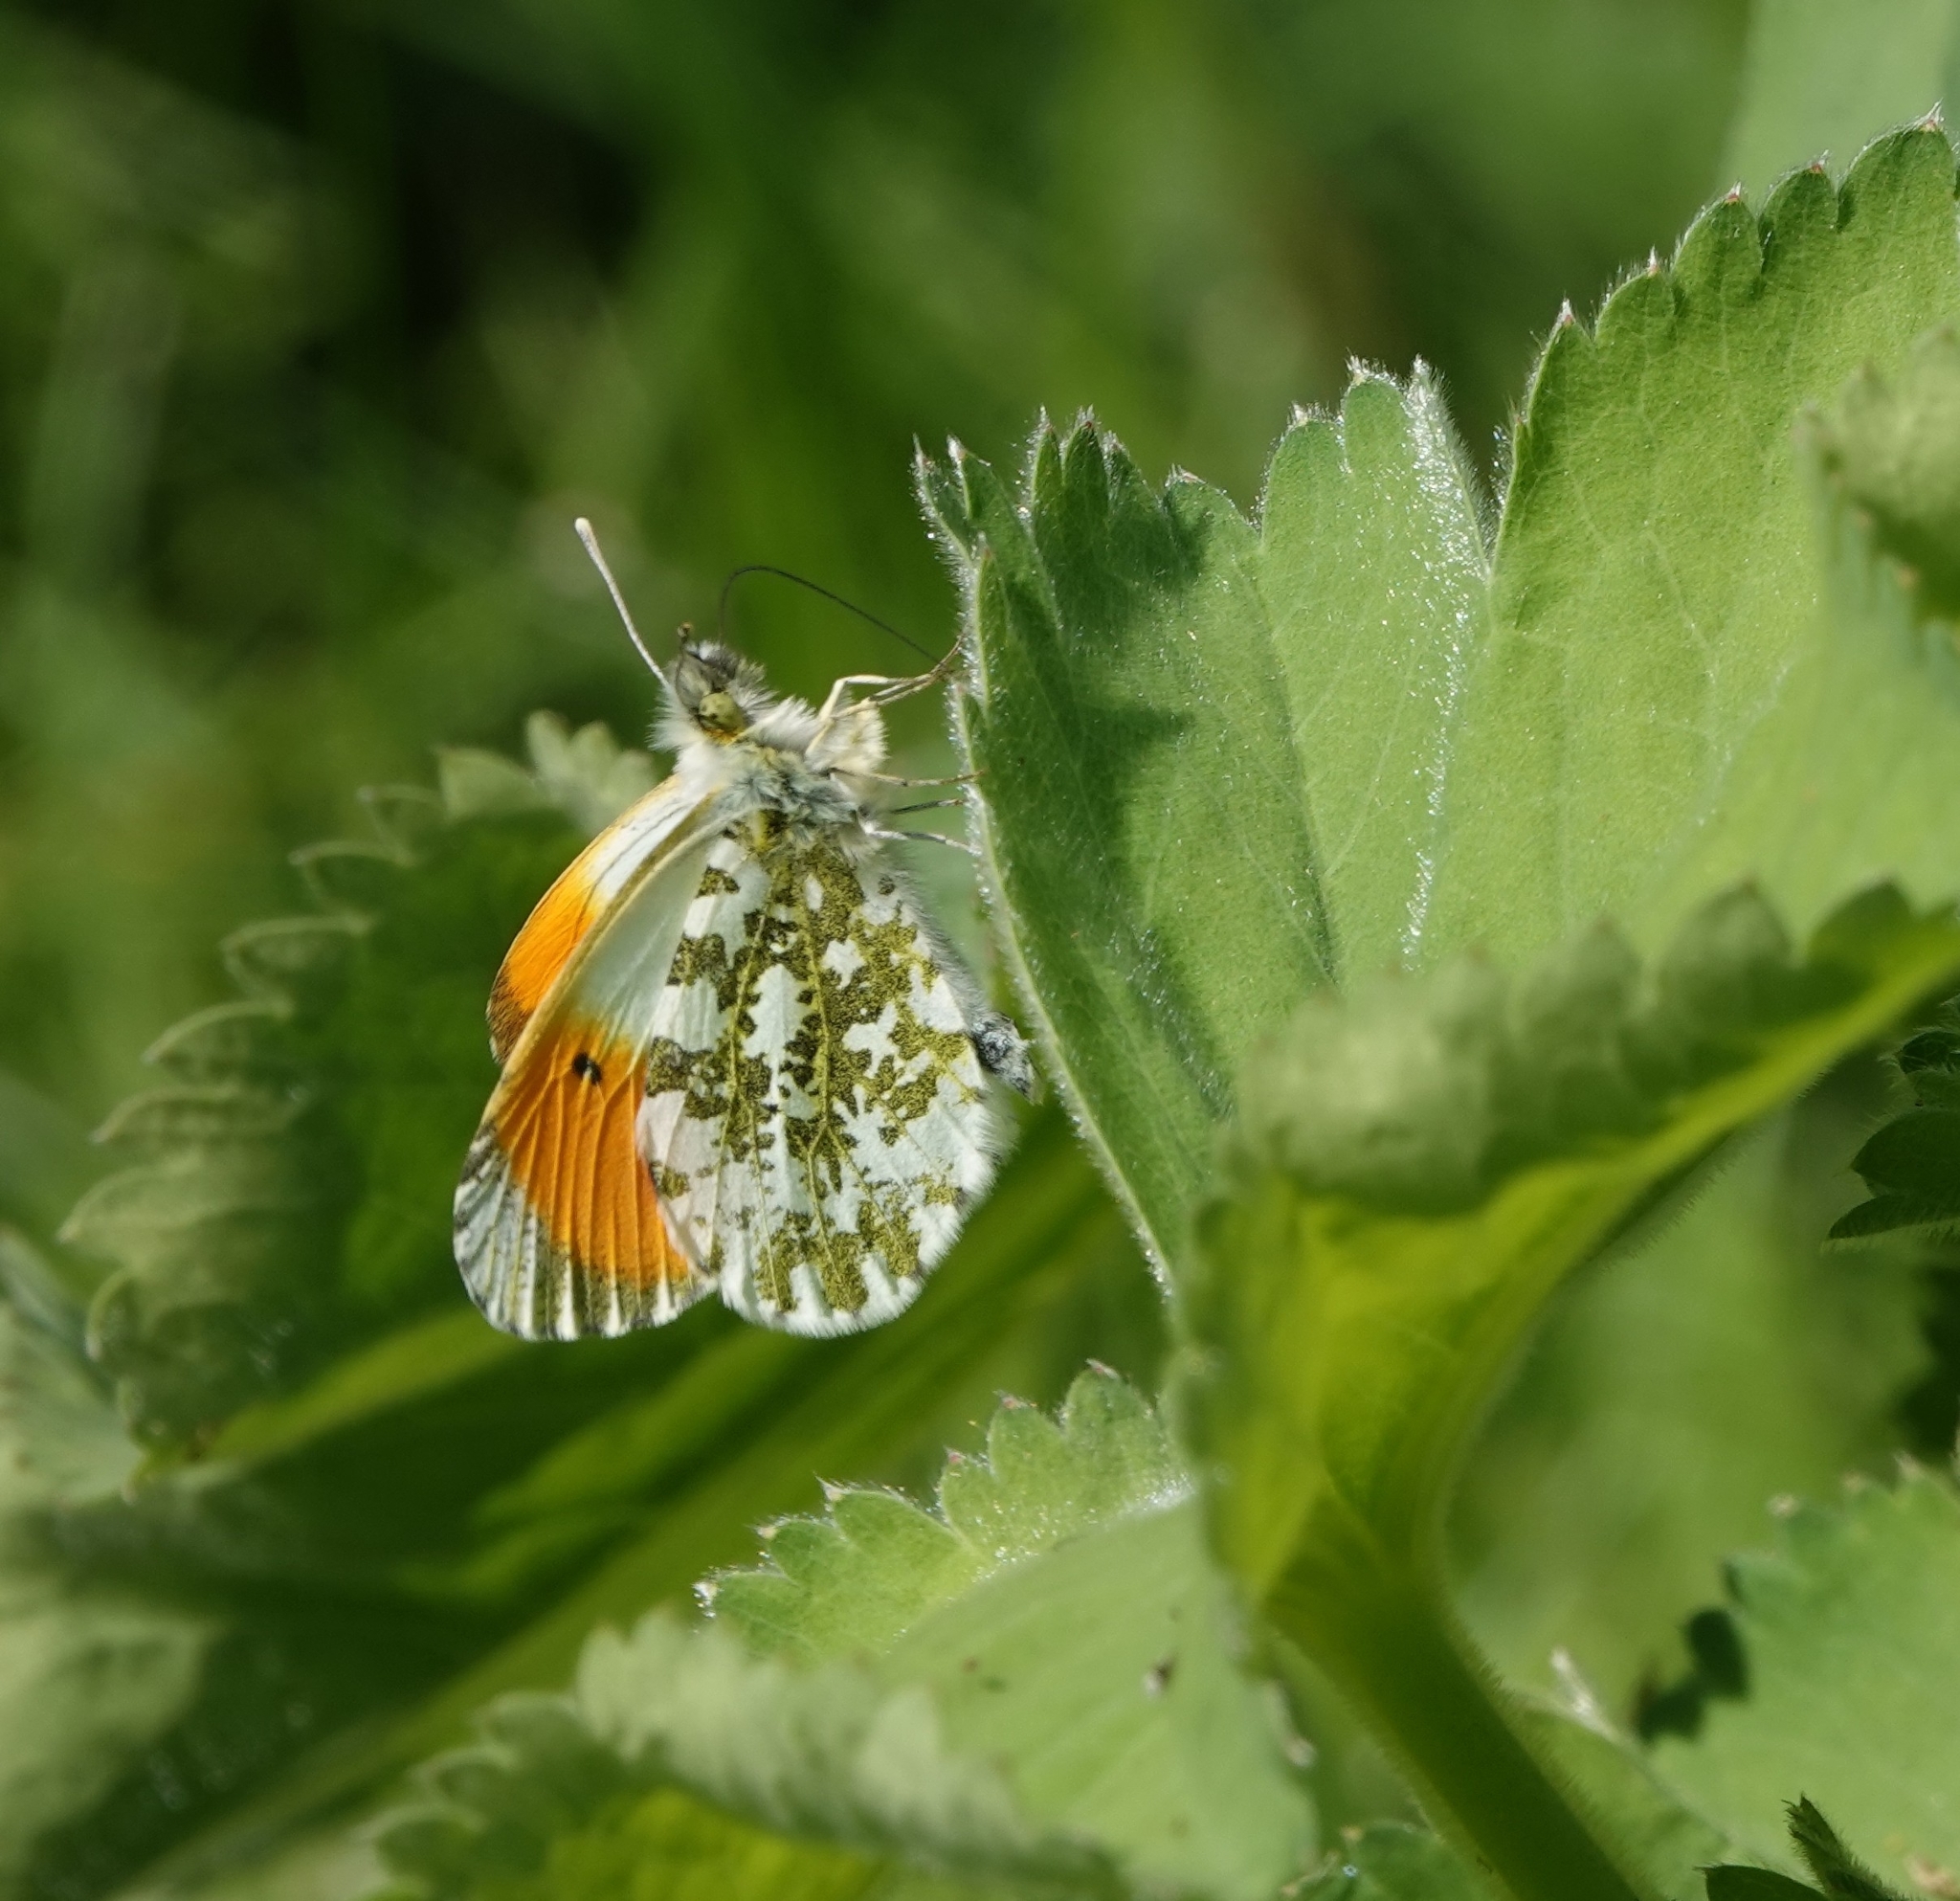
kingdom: Animalia
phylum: Arthropoda
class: Insecta
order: Lepidoptera
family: Pieridae
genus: Anthocharis
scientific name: Anthocharis cardamines
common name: Orange-tip
